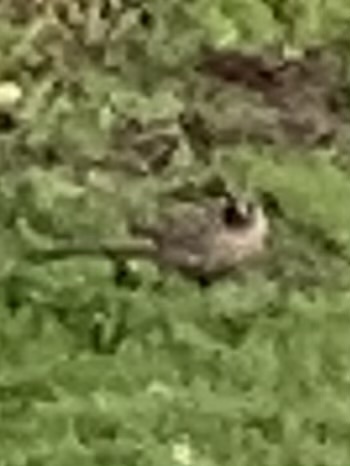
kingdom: Animalia
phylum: Chordata
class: Aves
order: Passeriformes
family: Passerellidae
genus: Melozone
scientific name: Melozone aberti
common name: Abert's towhee
